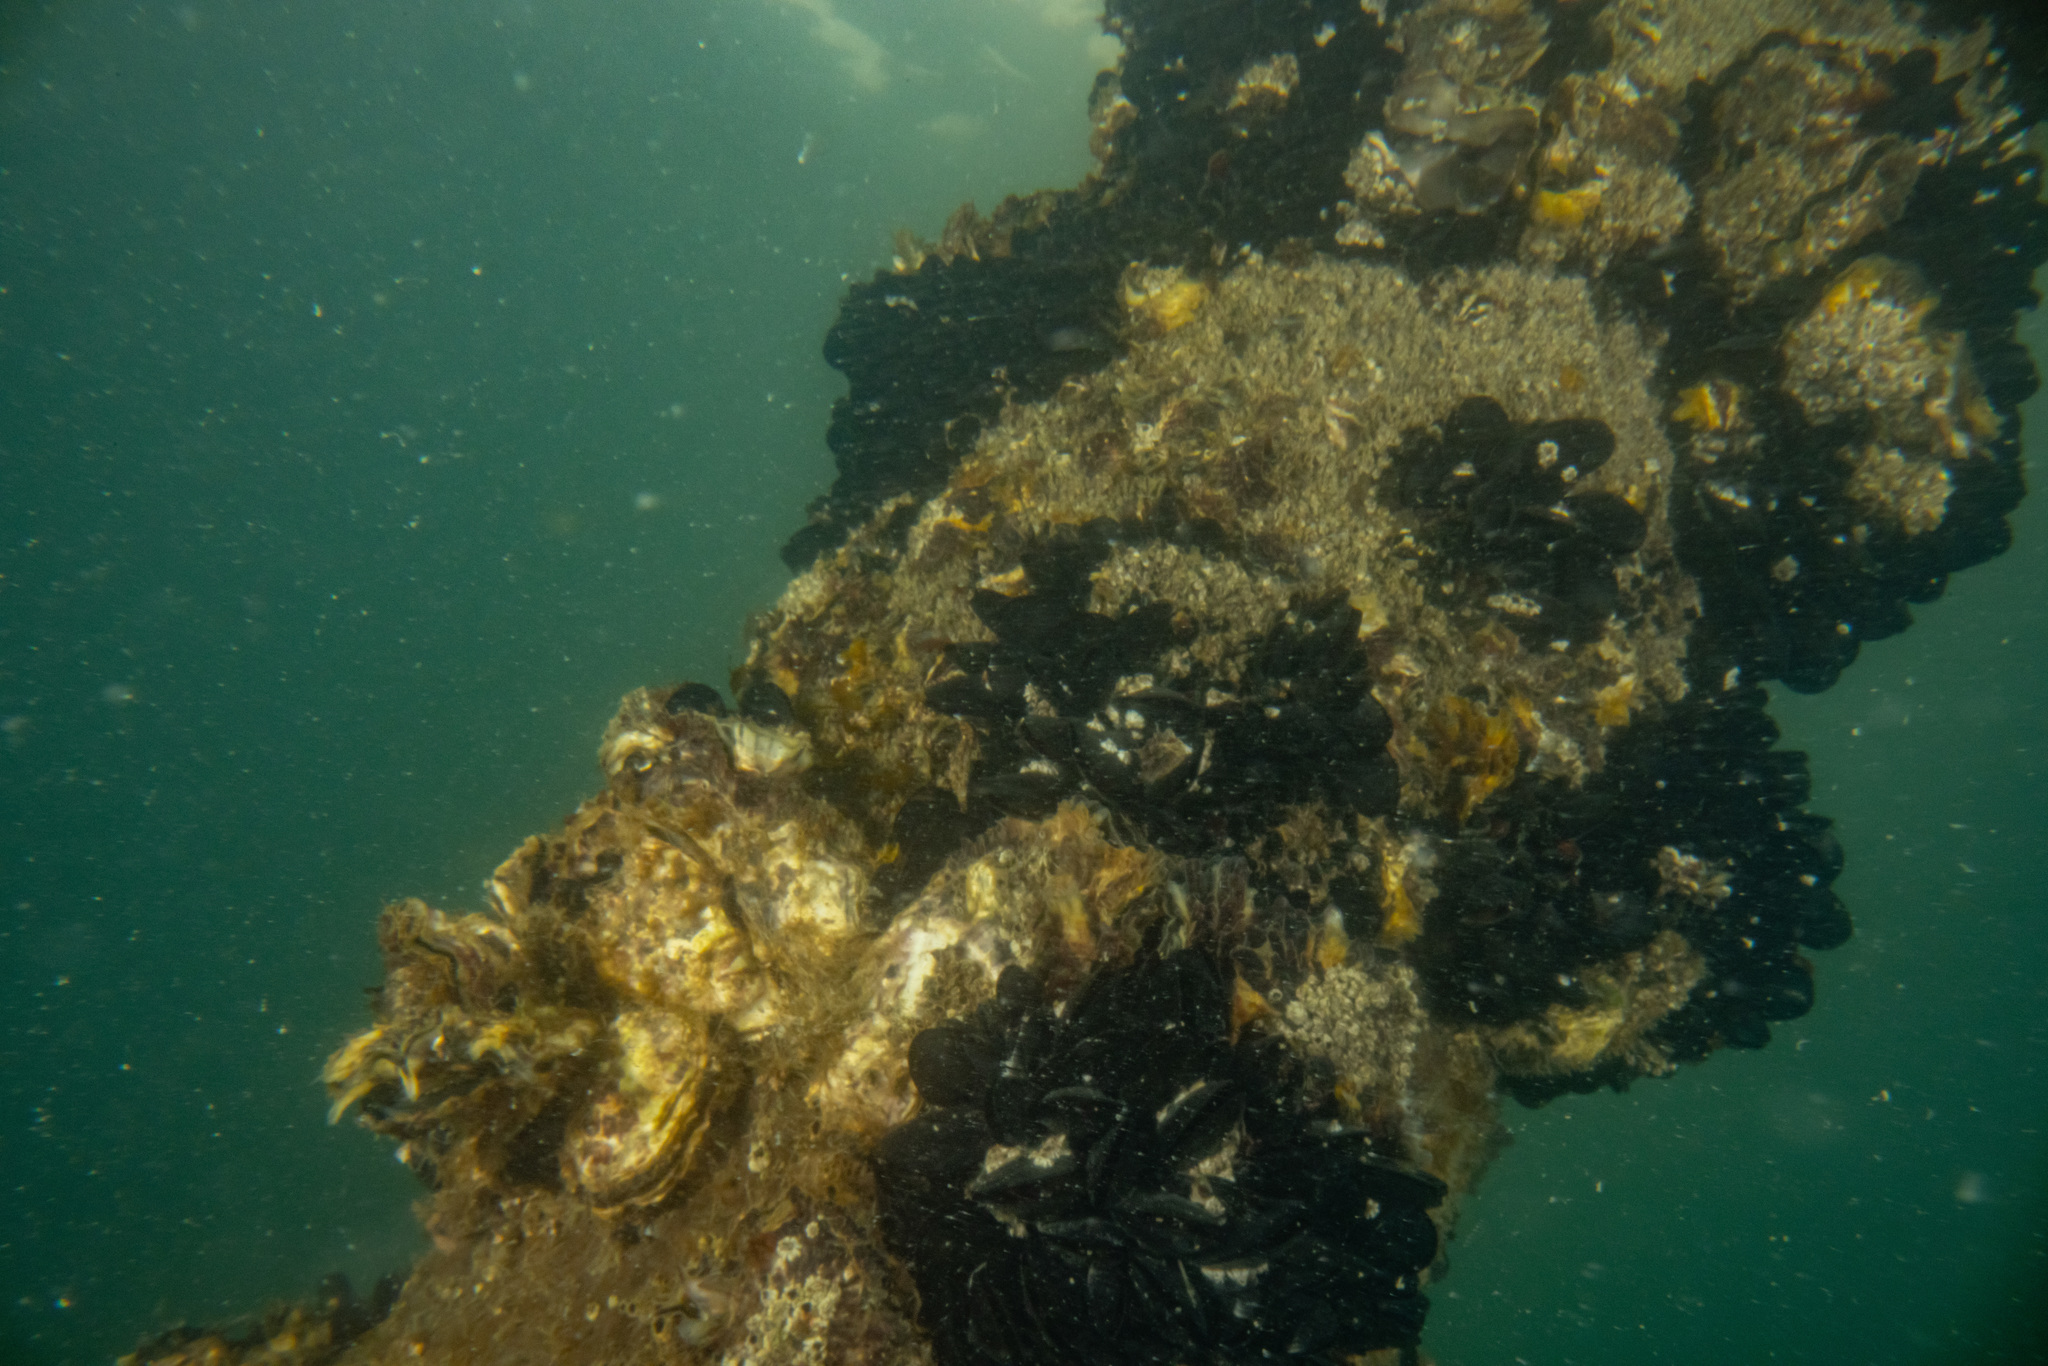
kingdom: Animalia
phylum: Mollusca
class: Bivalvia
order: Mytilida
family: Mytilidae
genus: Mytilus
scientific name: Mytilus planulatus
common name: Australian mussel
